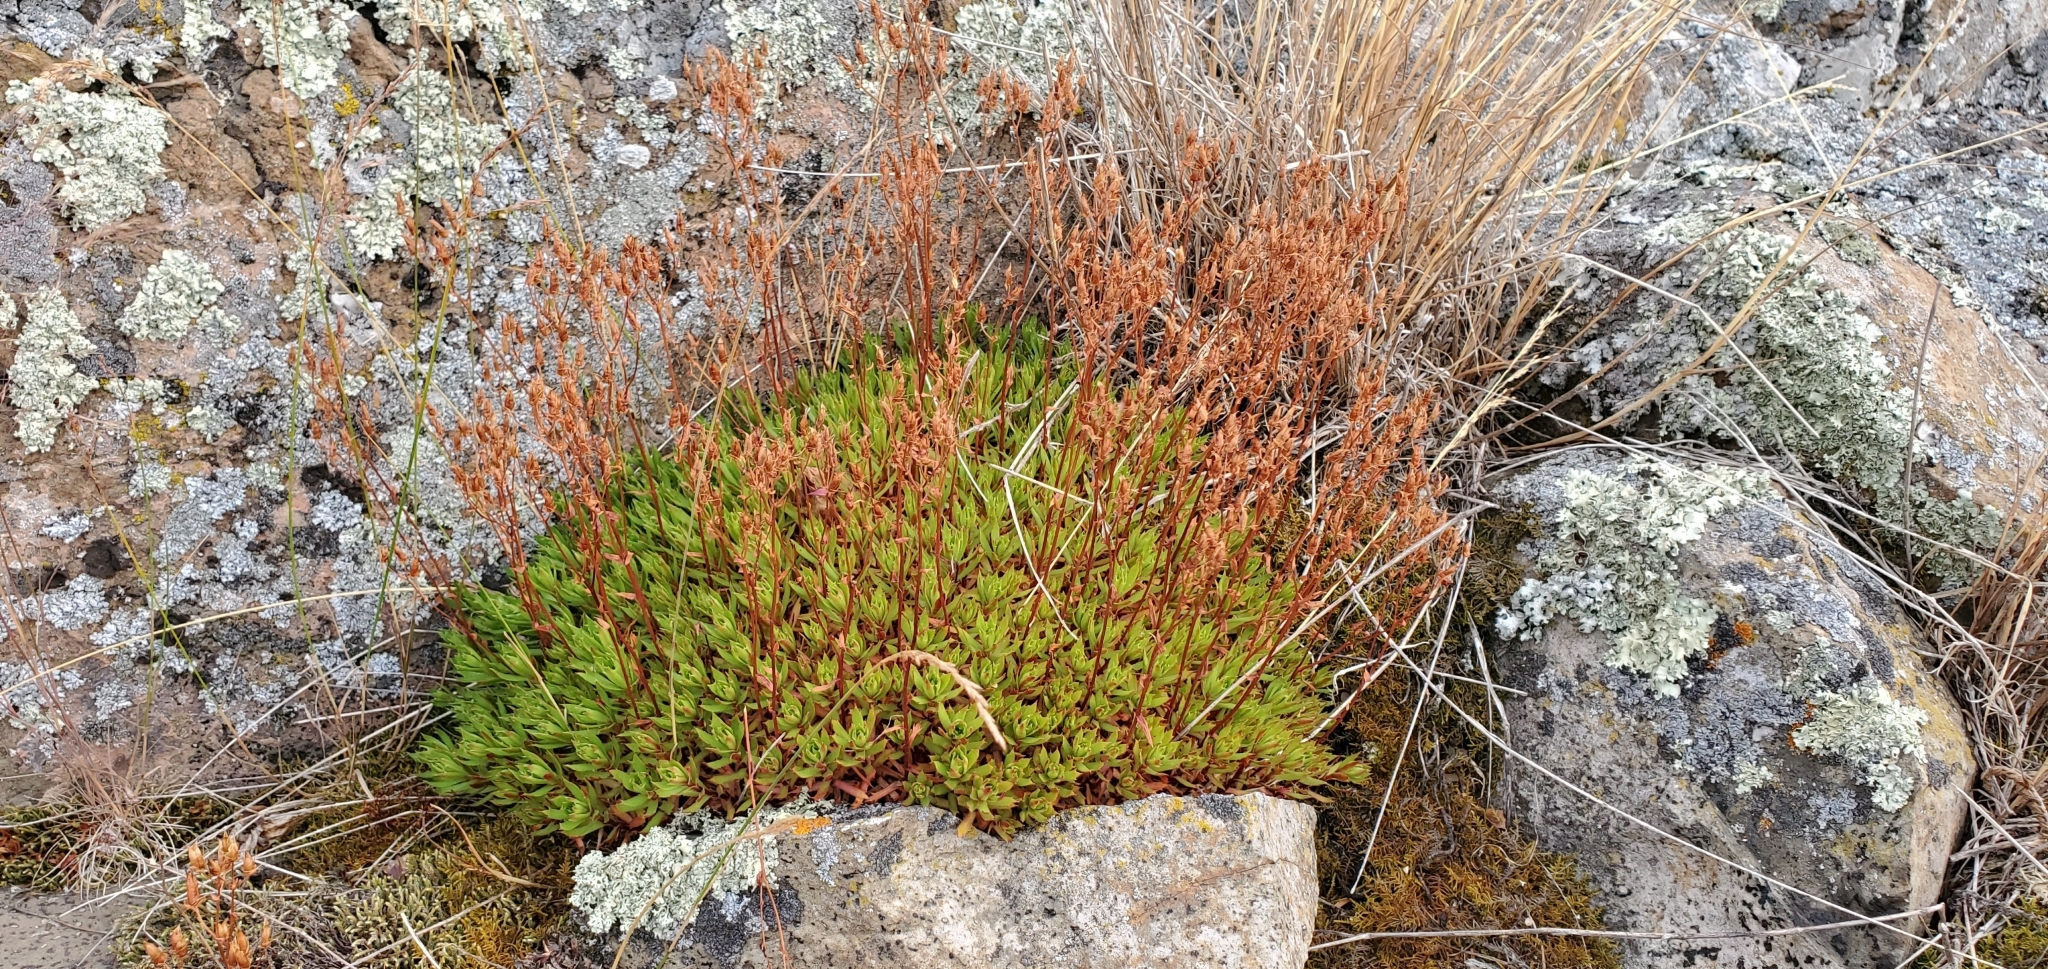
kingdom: Plantae
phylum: Tracheophyta
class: Magnoliopsida
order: Saxifragales
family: Saxifragaceae
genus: Saxifraga
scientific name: Saxifraga tricuspidata
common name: Prickly saxifrage
